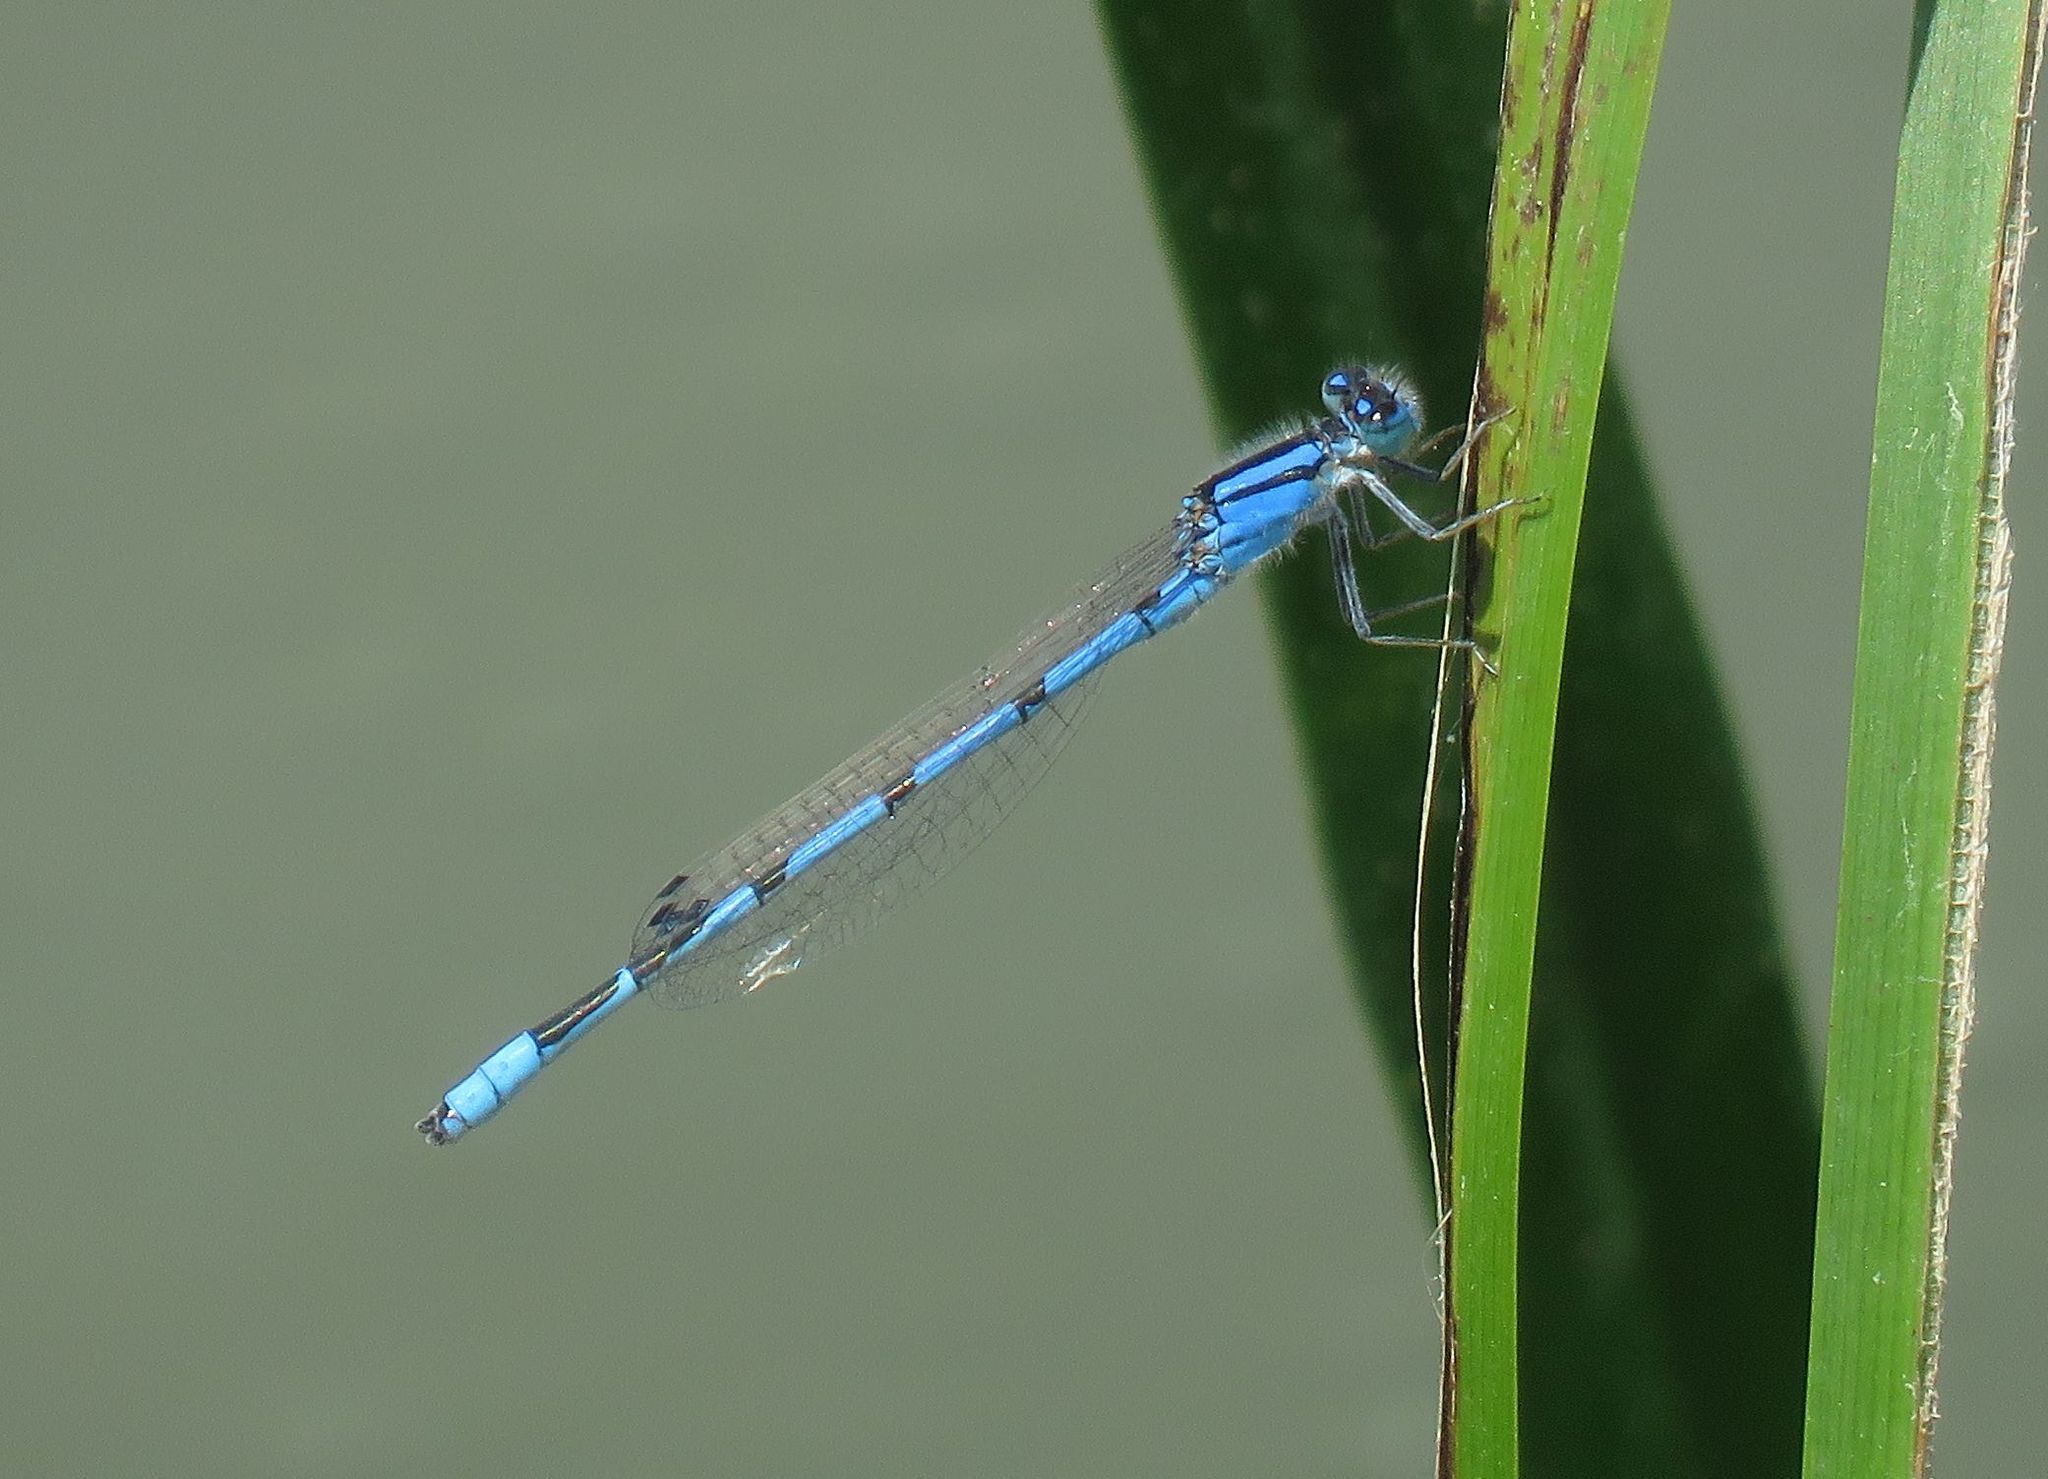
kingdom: Animalia
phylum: Arthropoda
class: Insecta
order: Odonata
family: Coenagrionidae
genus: Enallagma
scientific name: Enallagma civile
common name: Damselfly
